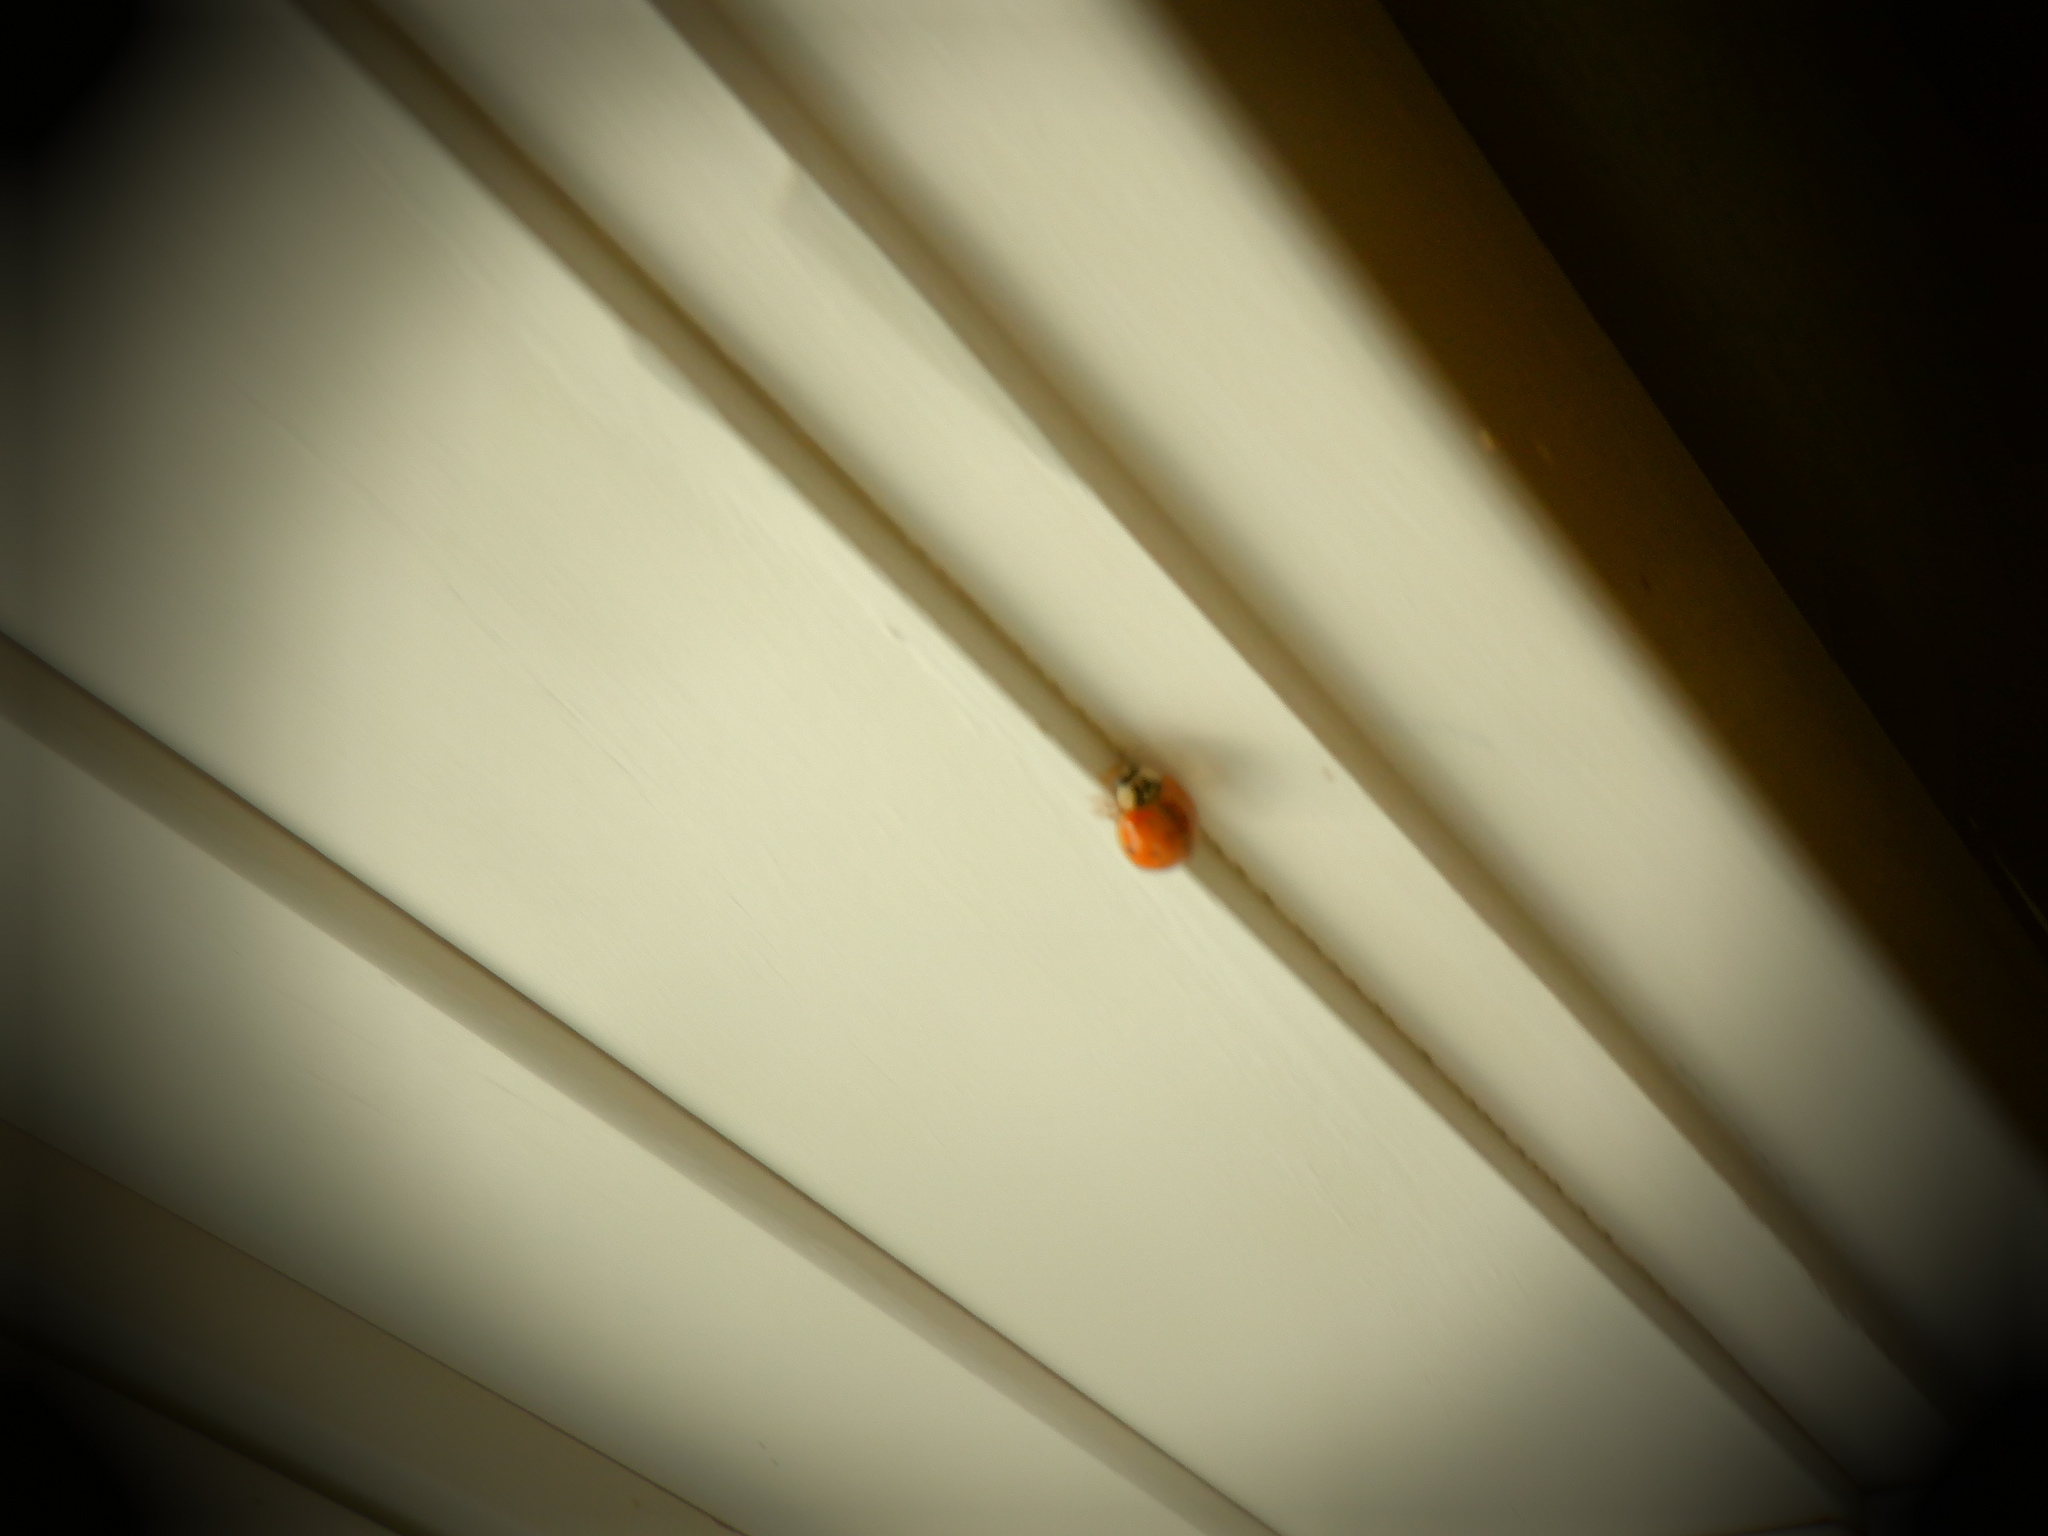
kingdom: Animalia
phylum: Arthropoda
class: Insecta
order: Coleoptera
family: Coccinellidae
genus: Harmonia
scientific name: Harmonia axyridis
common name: Harlequin ladybird
